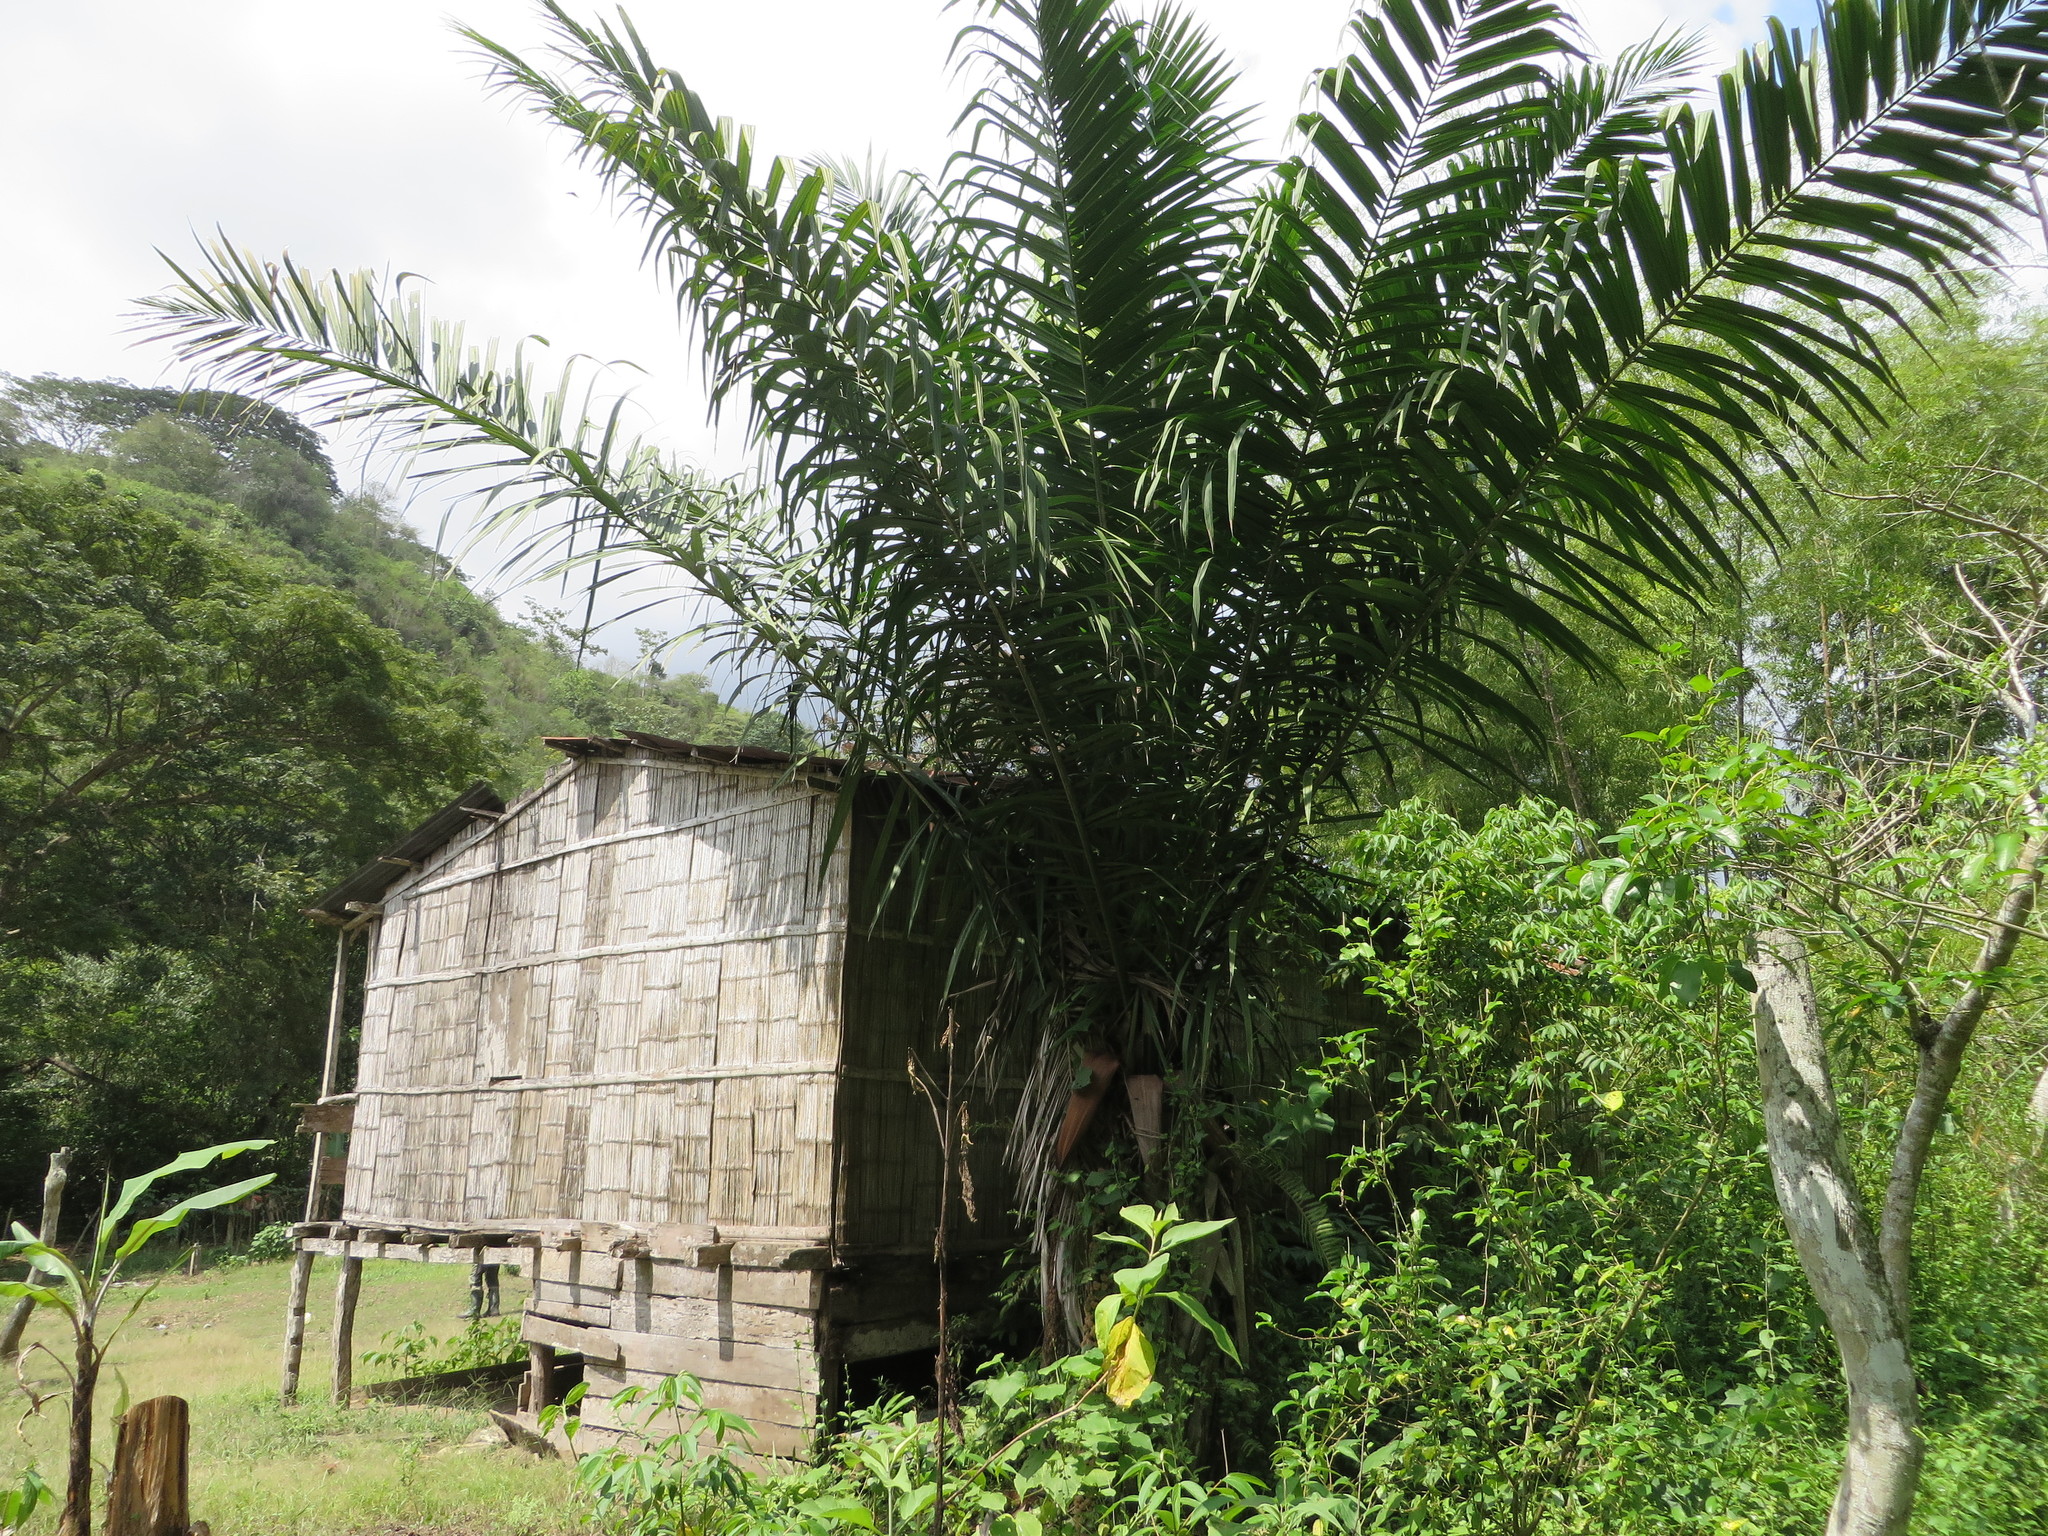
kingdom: Plantae
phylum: Tracheophyta
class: Liliopsida
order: Arecales
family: Arecaceae
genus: Phytelephas
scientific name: Phytelephas aequatorialis
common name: Ivory palm
